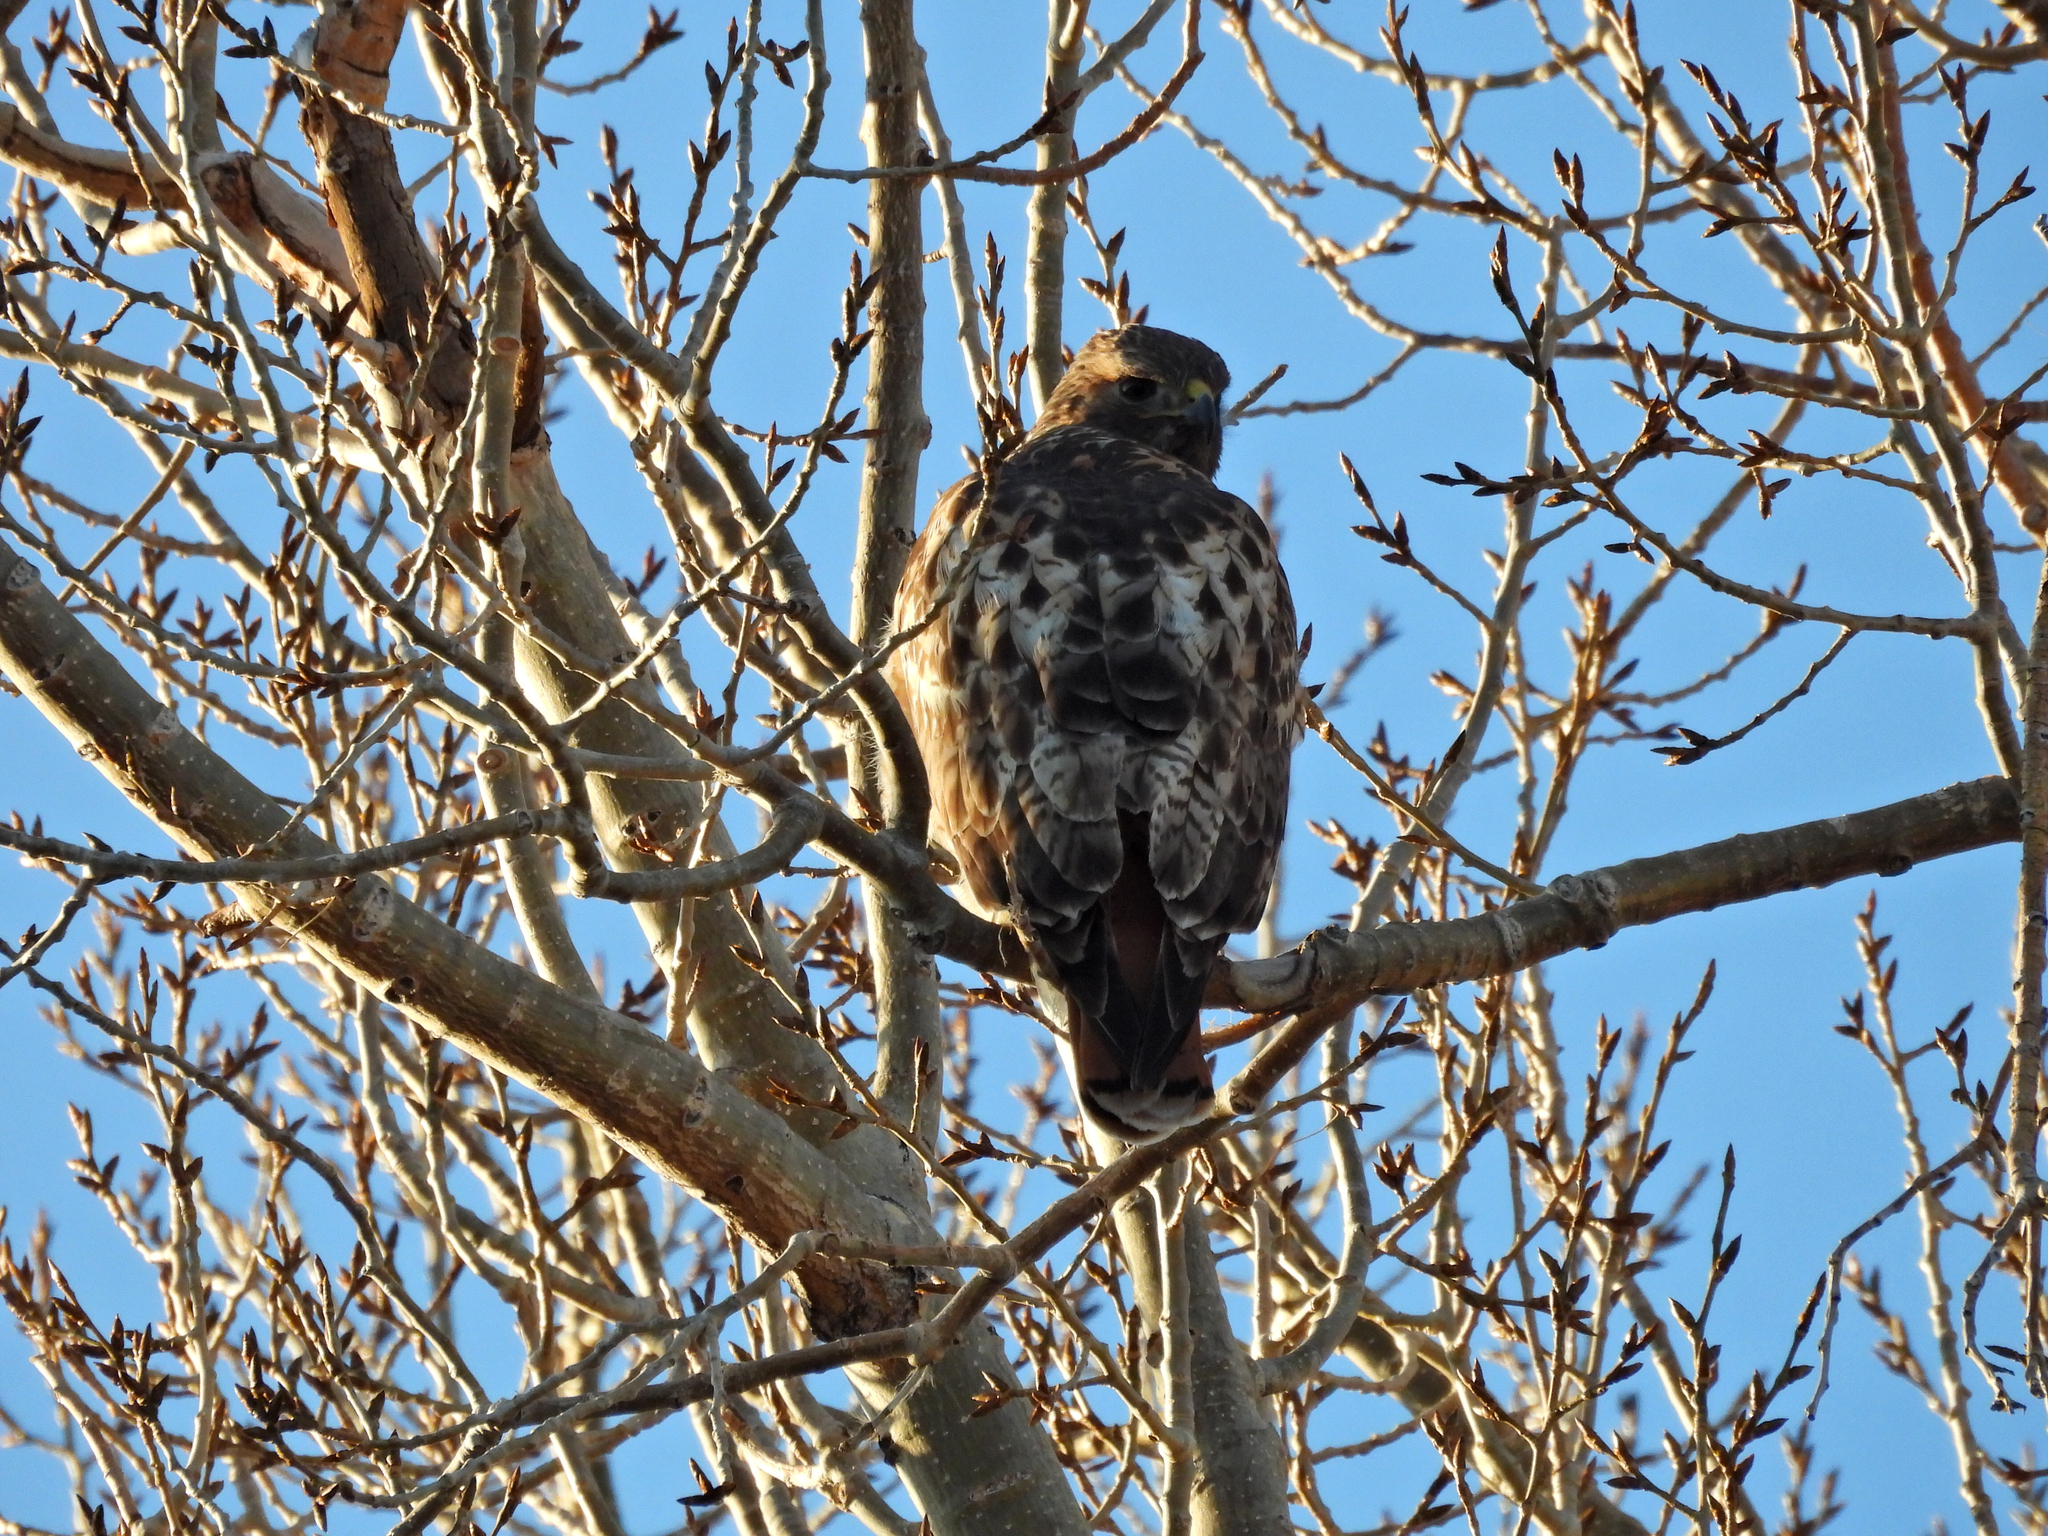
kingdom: Animalia
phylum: Chordata
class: Aves
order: Accipitriformes
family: Accipitridae
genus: Buteo
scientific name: Buteo jamaicensis
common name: Red-tailed hawk
